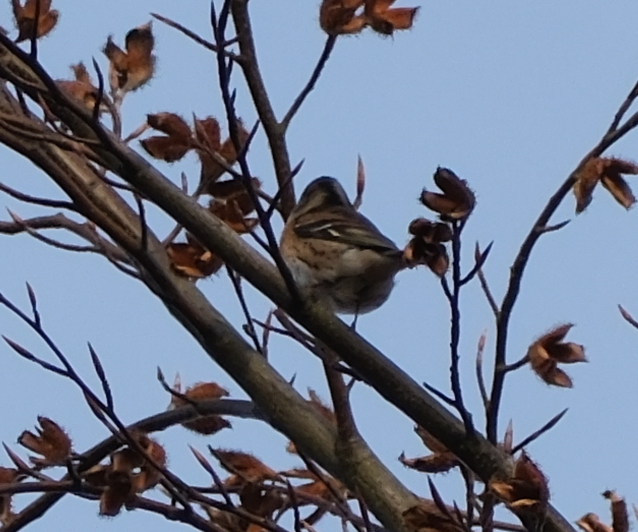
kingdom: Animalia
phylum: Chordata
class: Aves
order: Passeriformes
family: Fringillidae
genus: Fringilla
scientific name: Fringilla montifringilla
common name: Brambling
